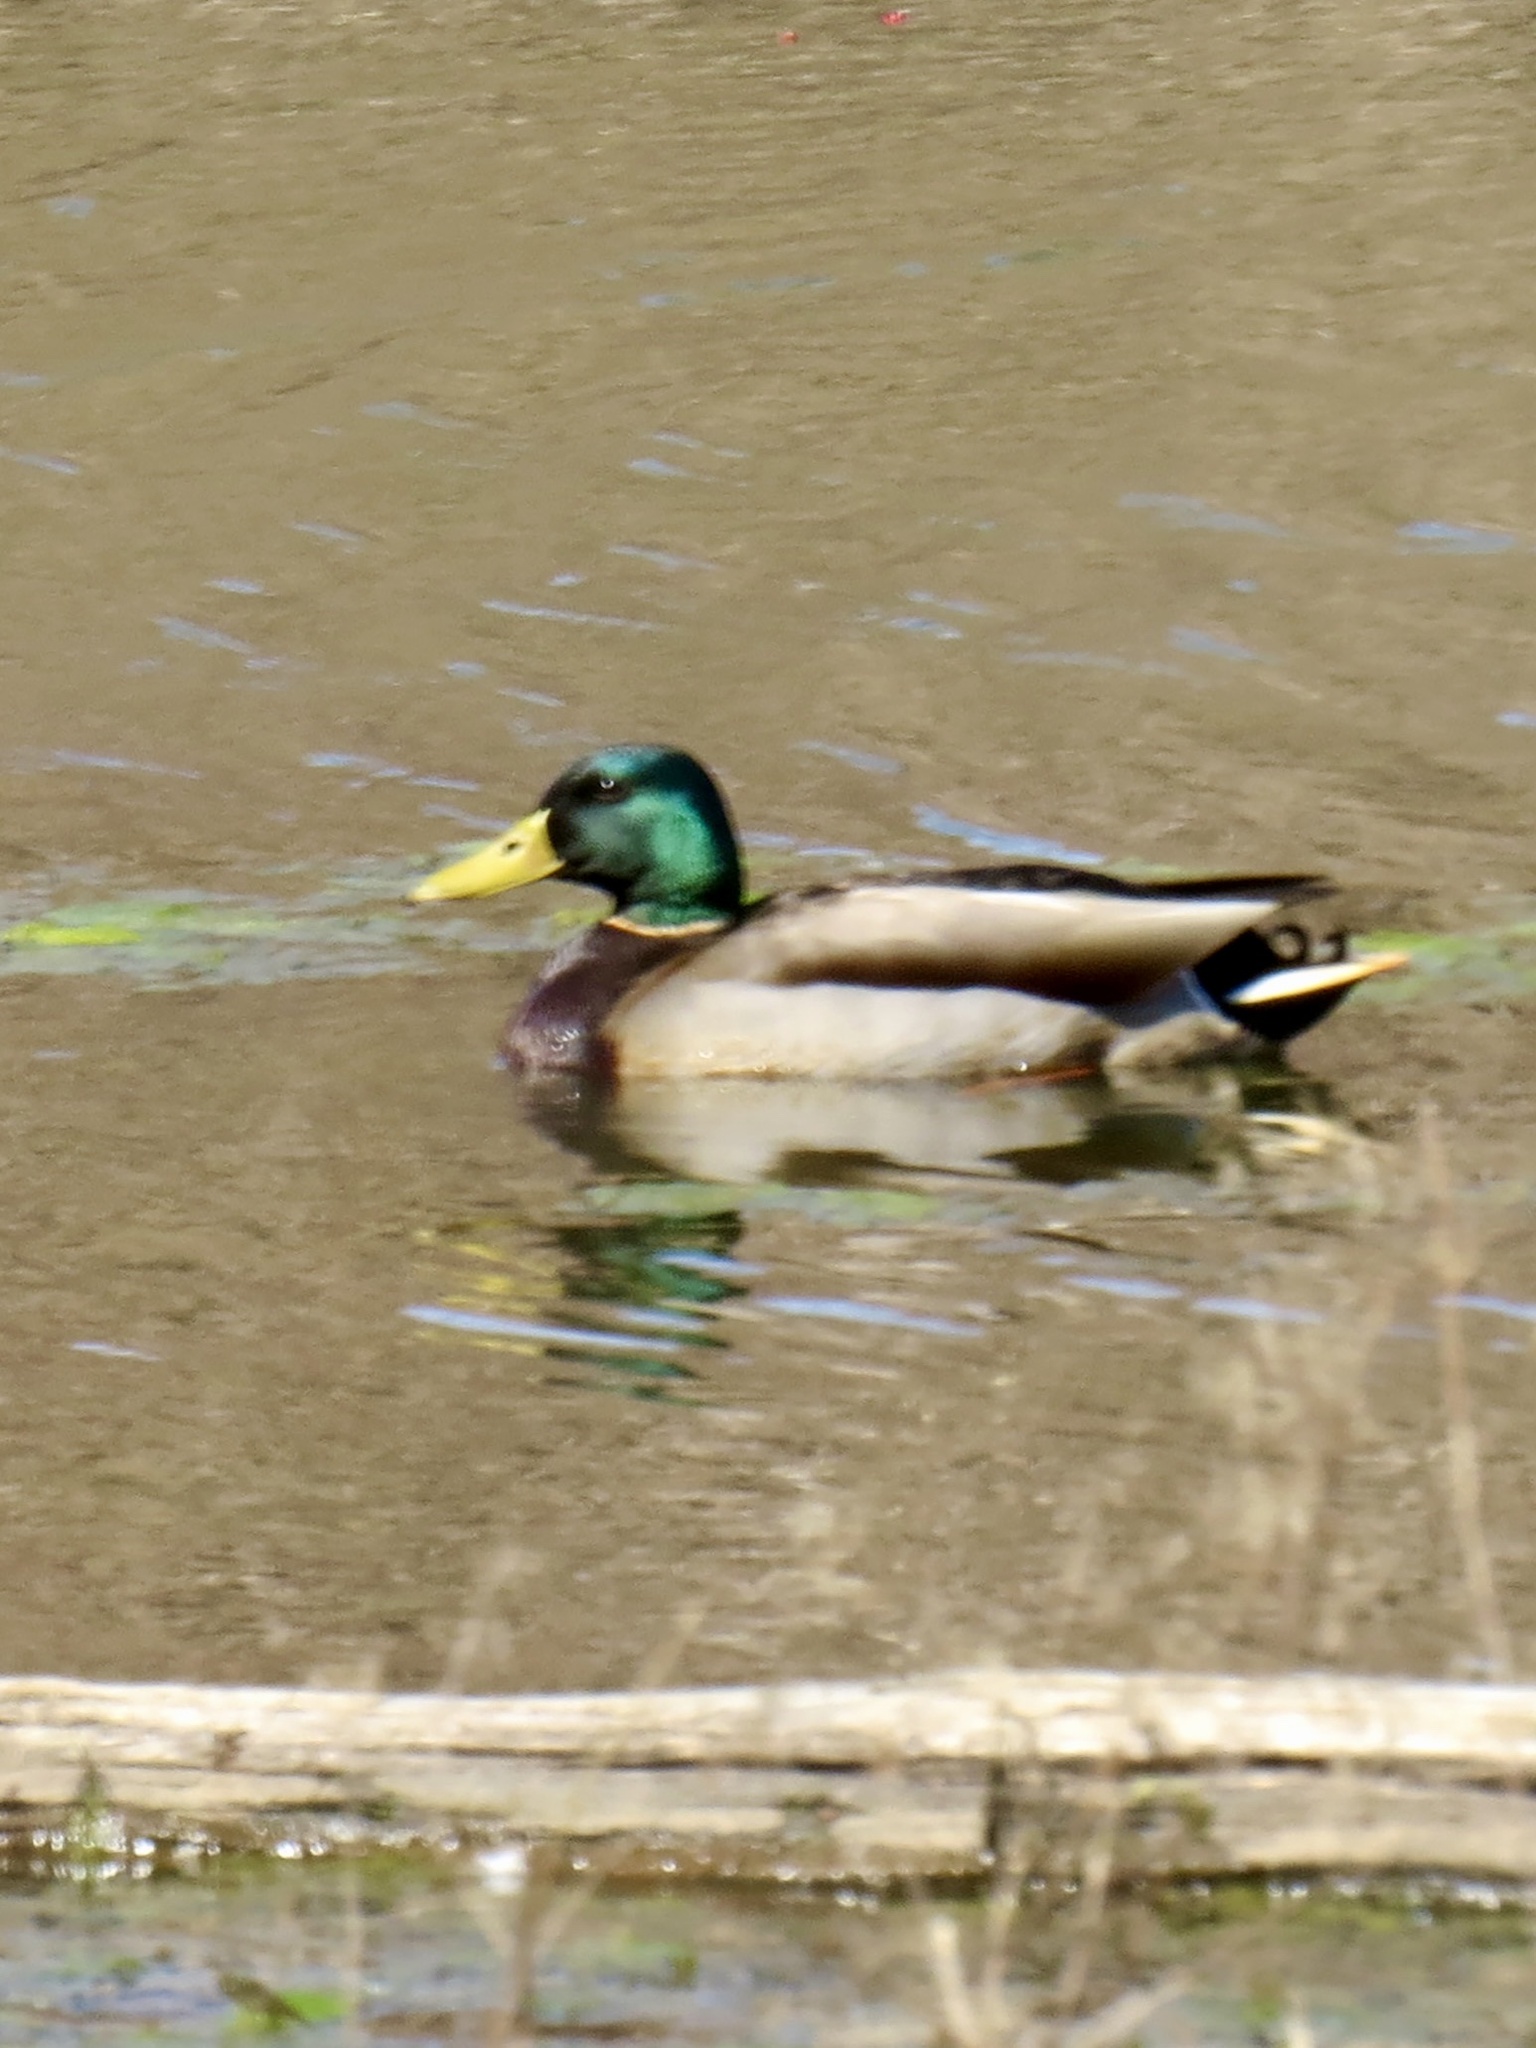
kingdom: Animalia
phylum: Chordata
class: Aves
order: Anseriformes
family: Anatidae
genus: Anas
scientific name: Anas platyrhynchos
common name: Mallard
